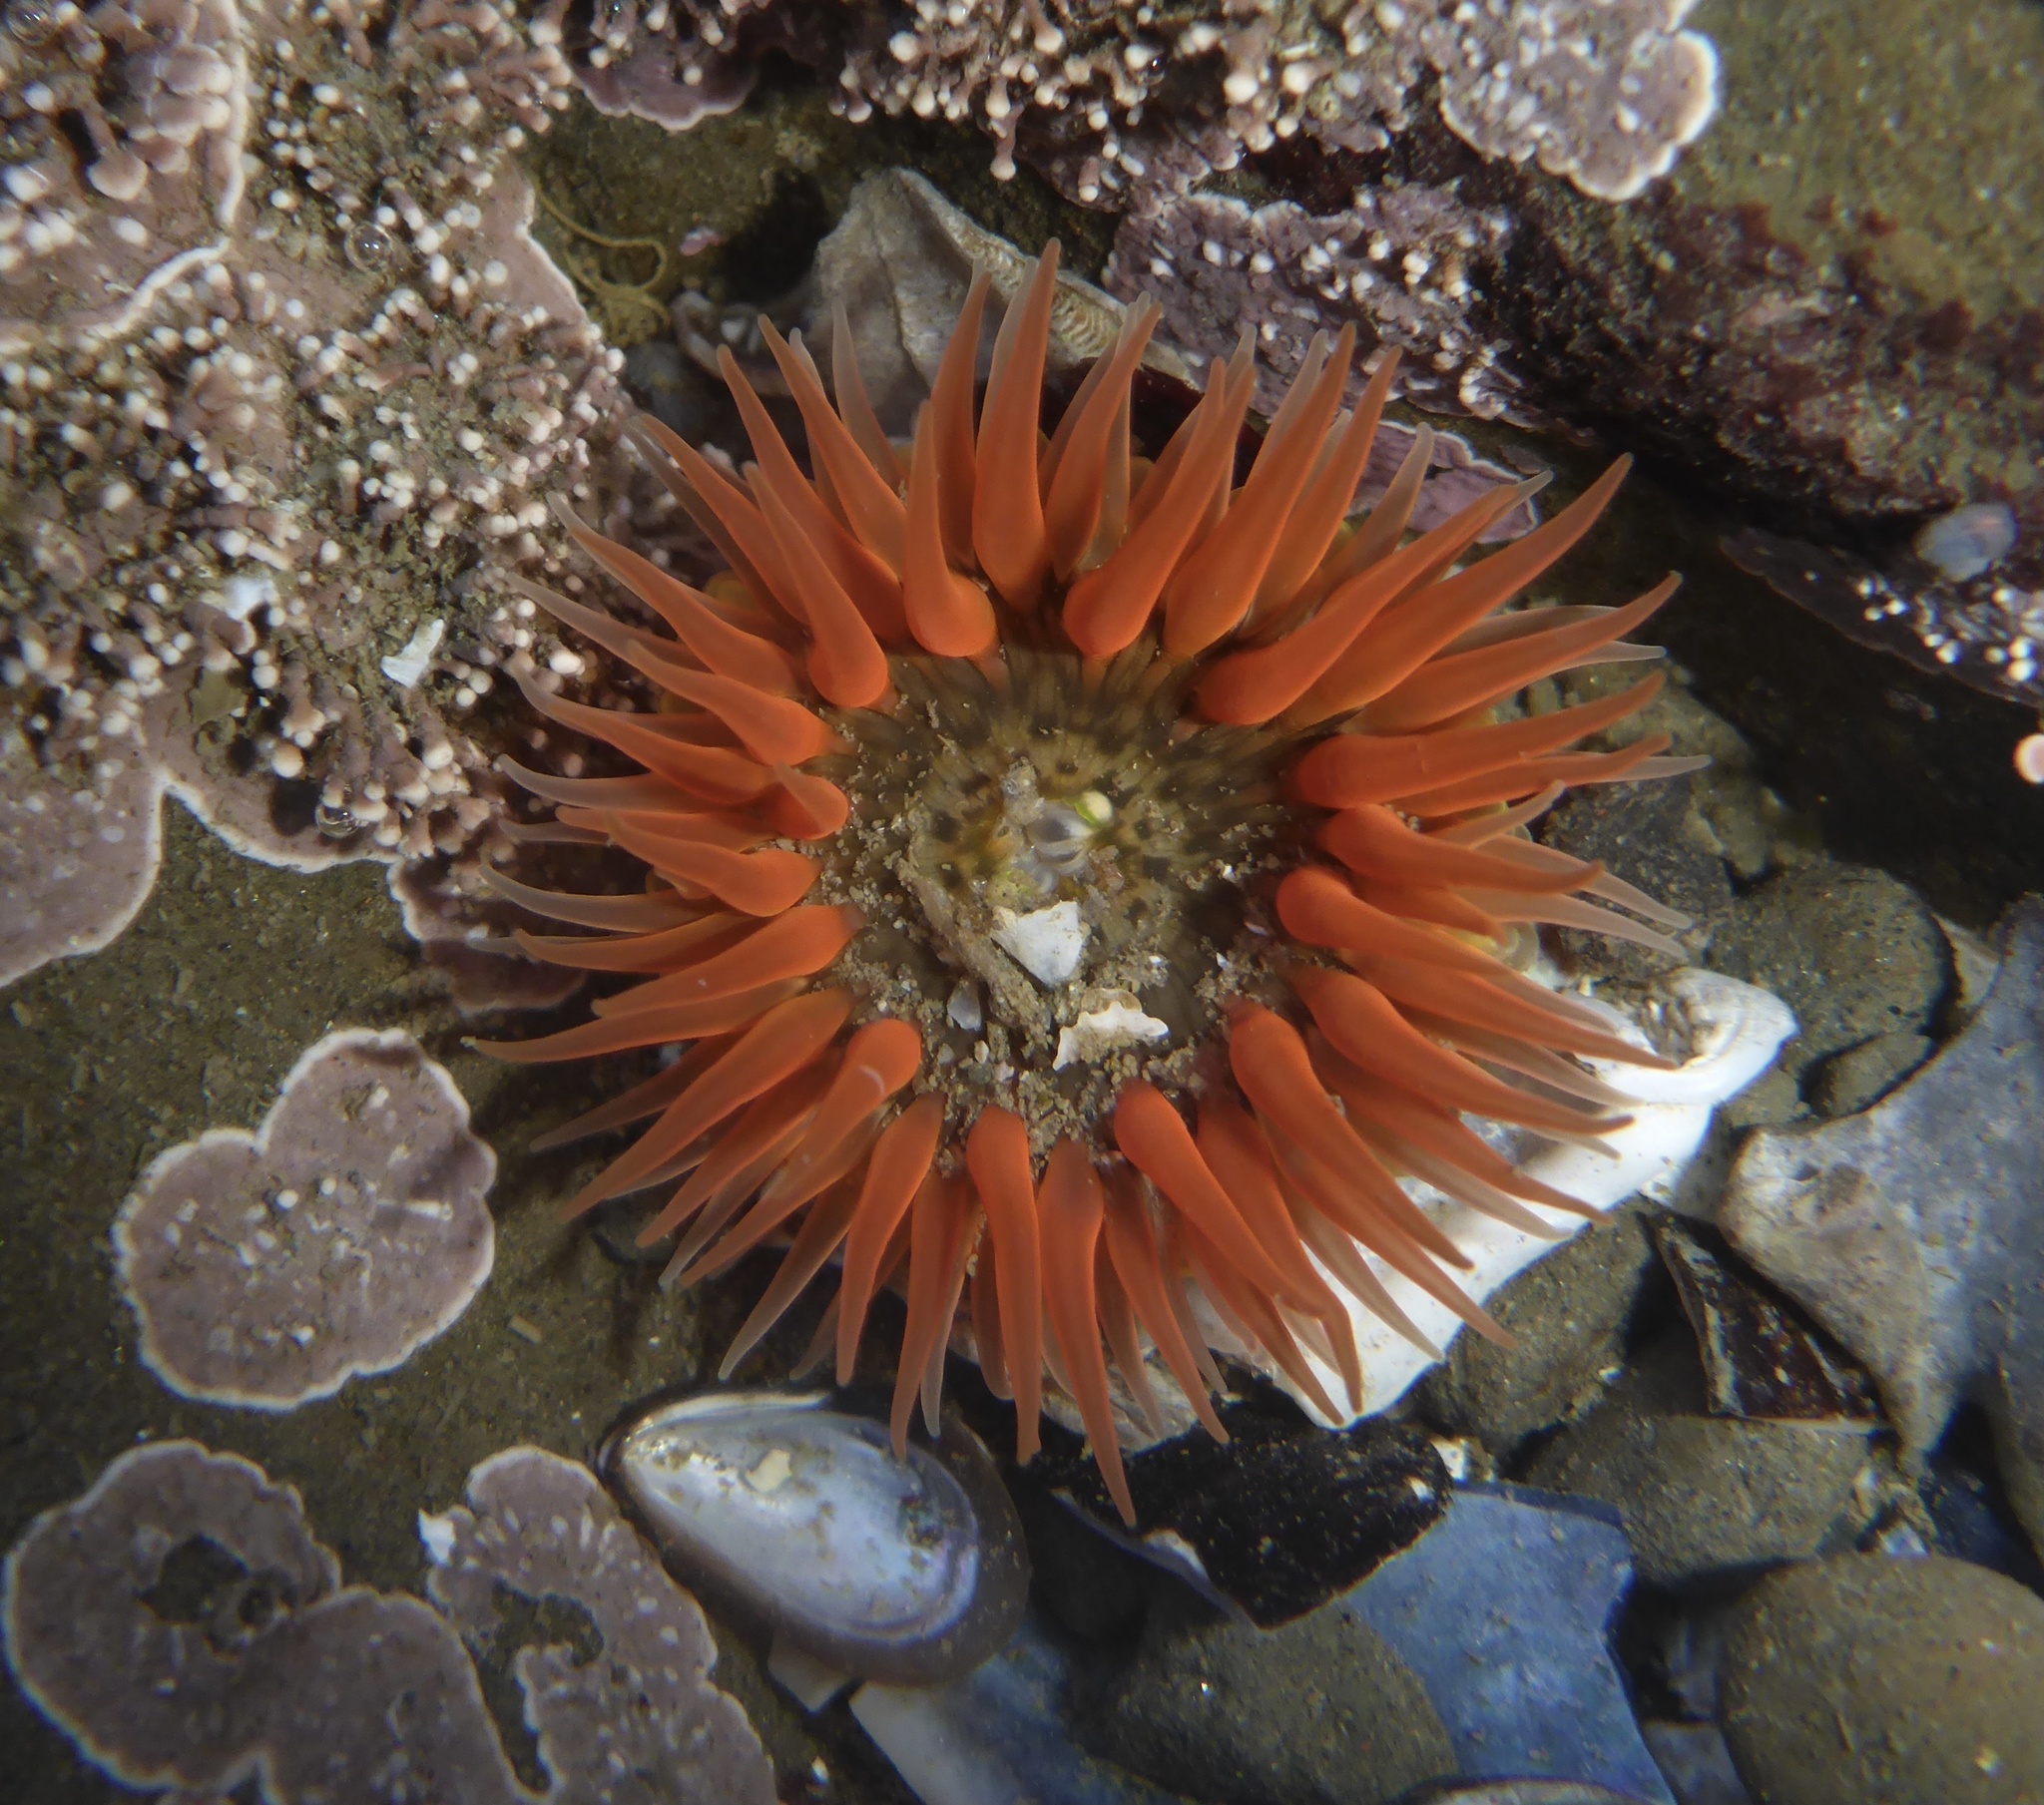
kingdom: Animalia
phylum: Cnidaria
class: Anthozoa
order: Actiniaria
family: Actiniidae
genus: Anthopleura
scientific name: Anthopleura artemisia
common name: Buried sea anemone
